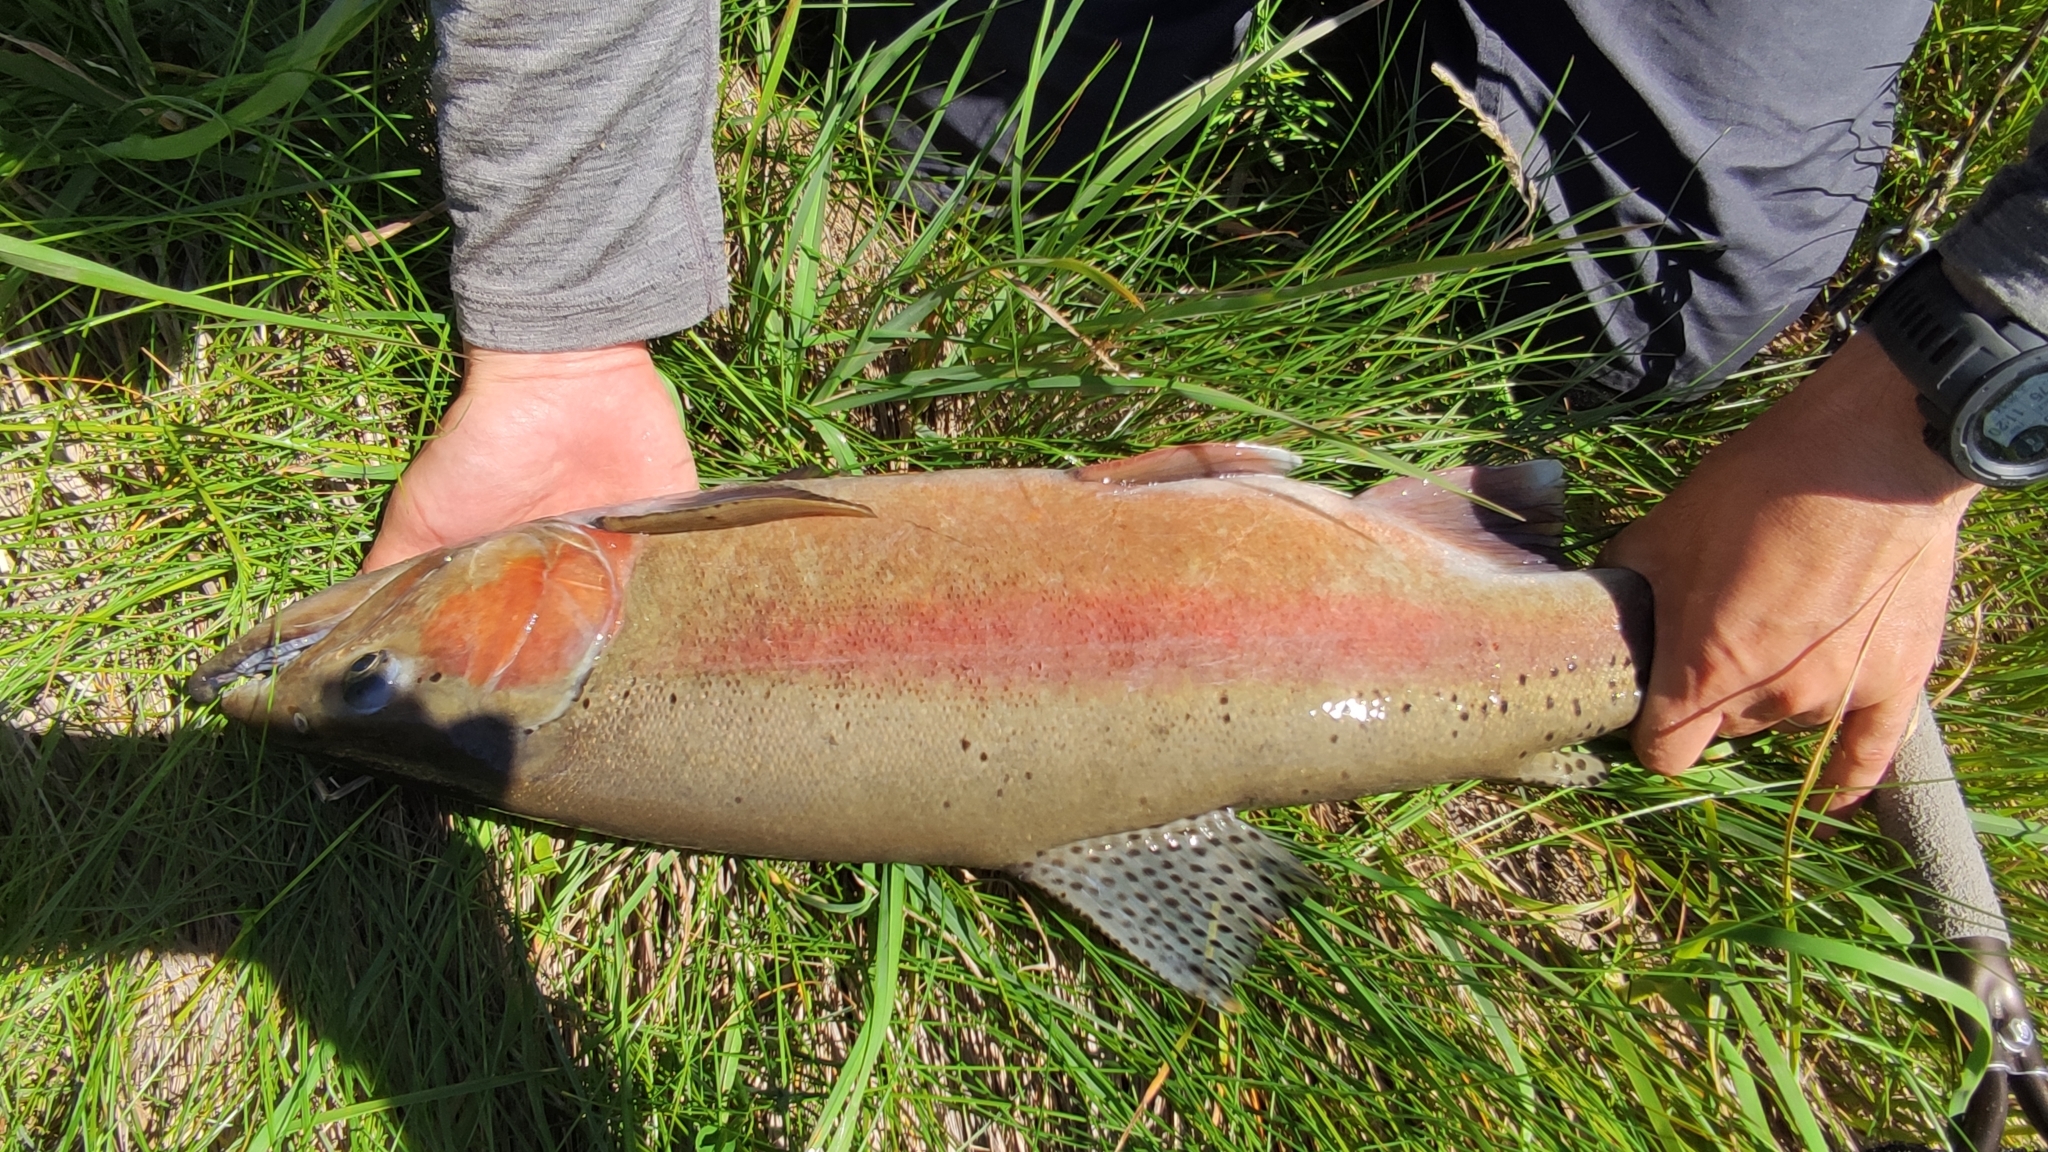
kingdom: Animalia
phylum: Chordata
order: Salmoniformes
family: Salmonidae
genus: Oncorhynchus
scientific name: Oncorhynchus mykiss
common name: Rainbow trout
